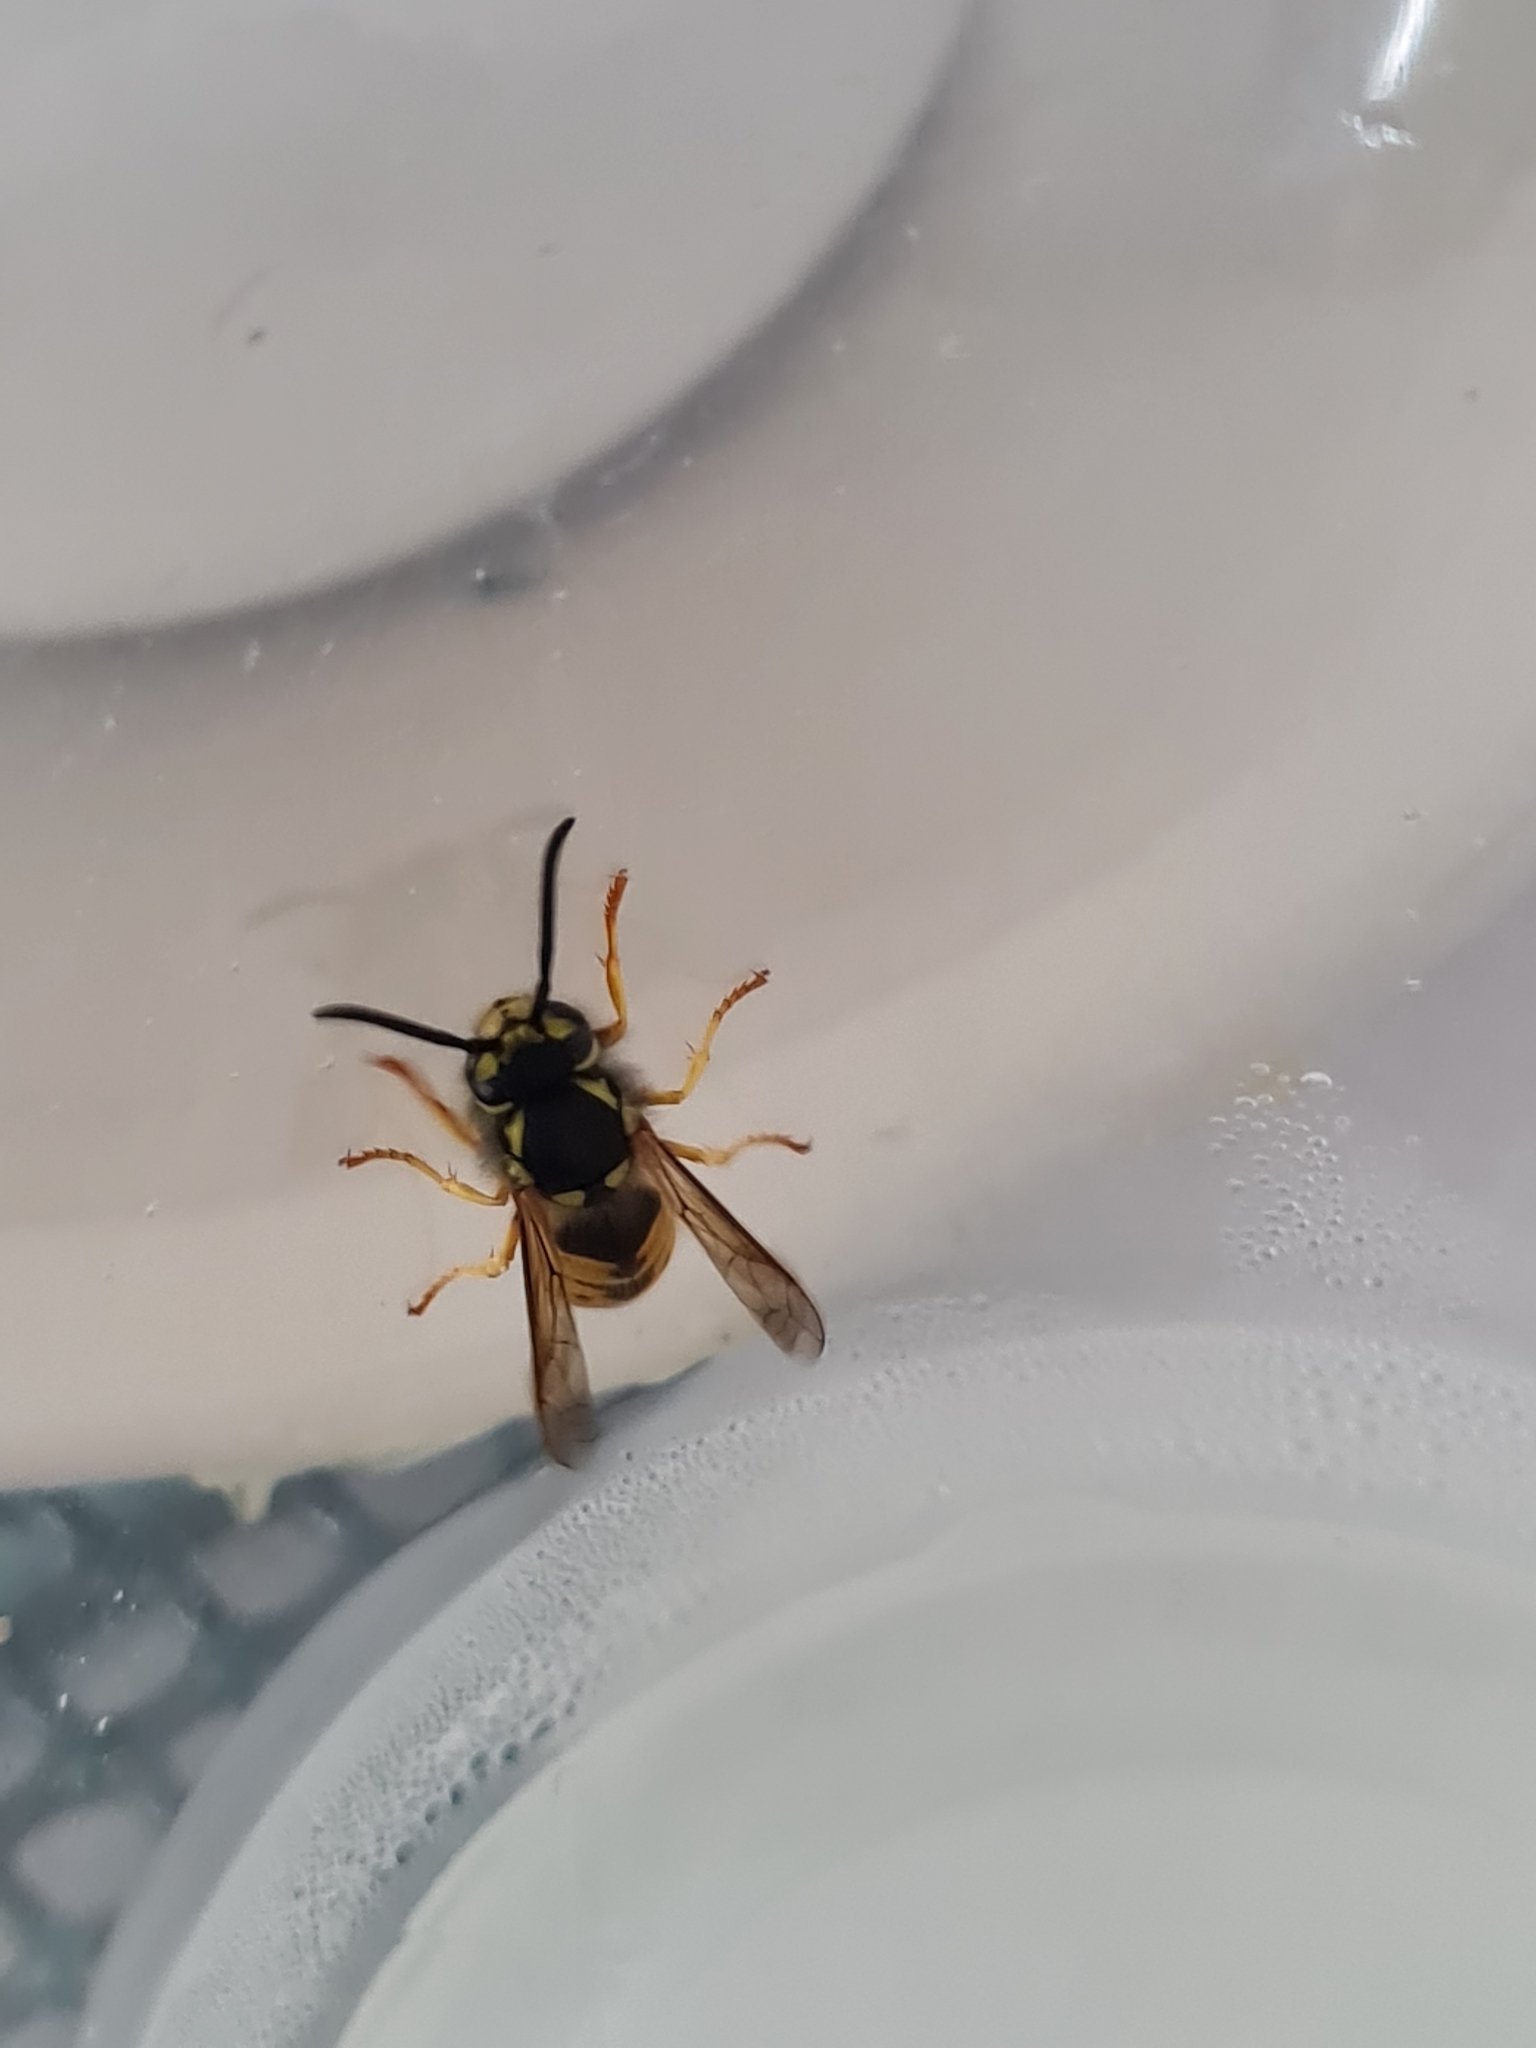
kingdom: Animalia
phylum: Arthropoda
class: Insecta
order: Hymenoptera
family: Vespidae
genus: Vespula
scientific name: Vespula germanica
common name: German wasp
